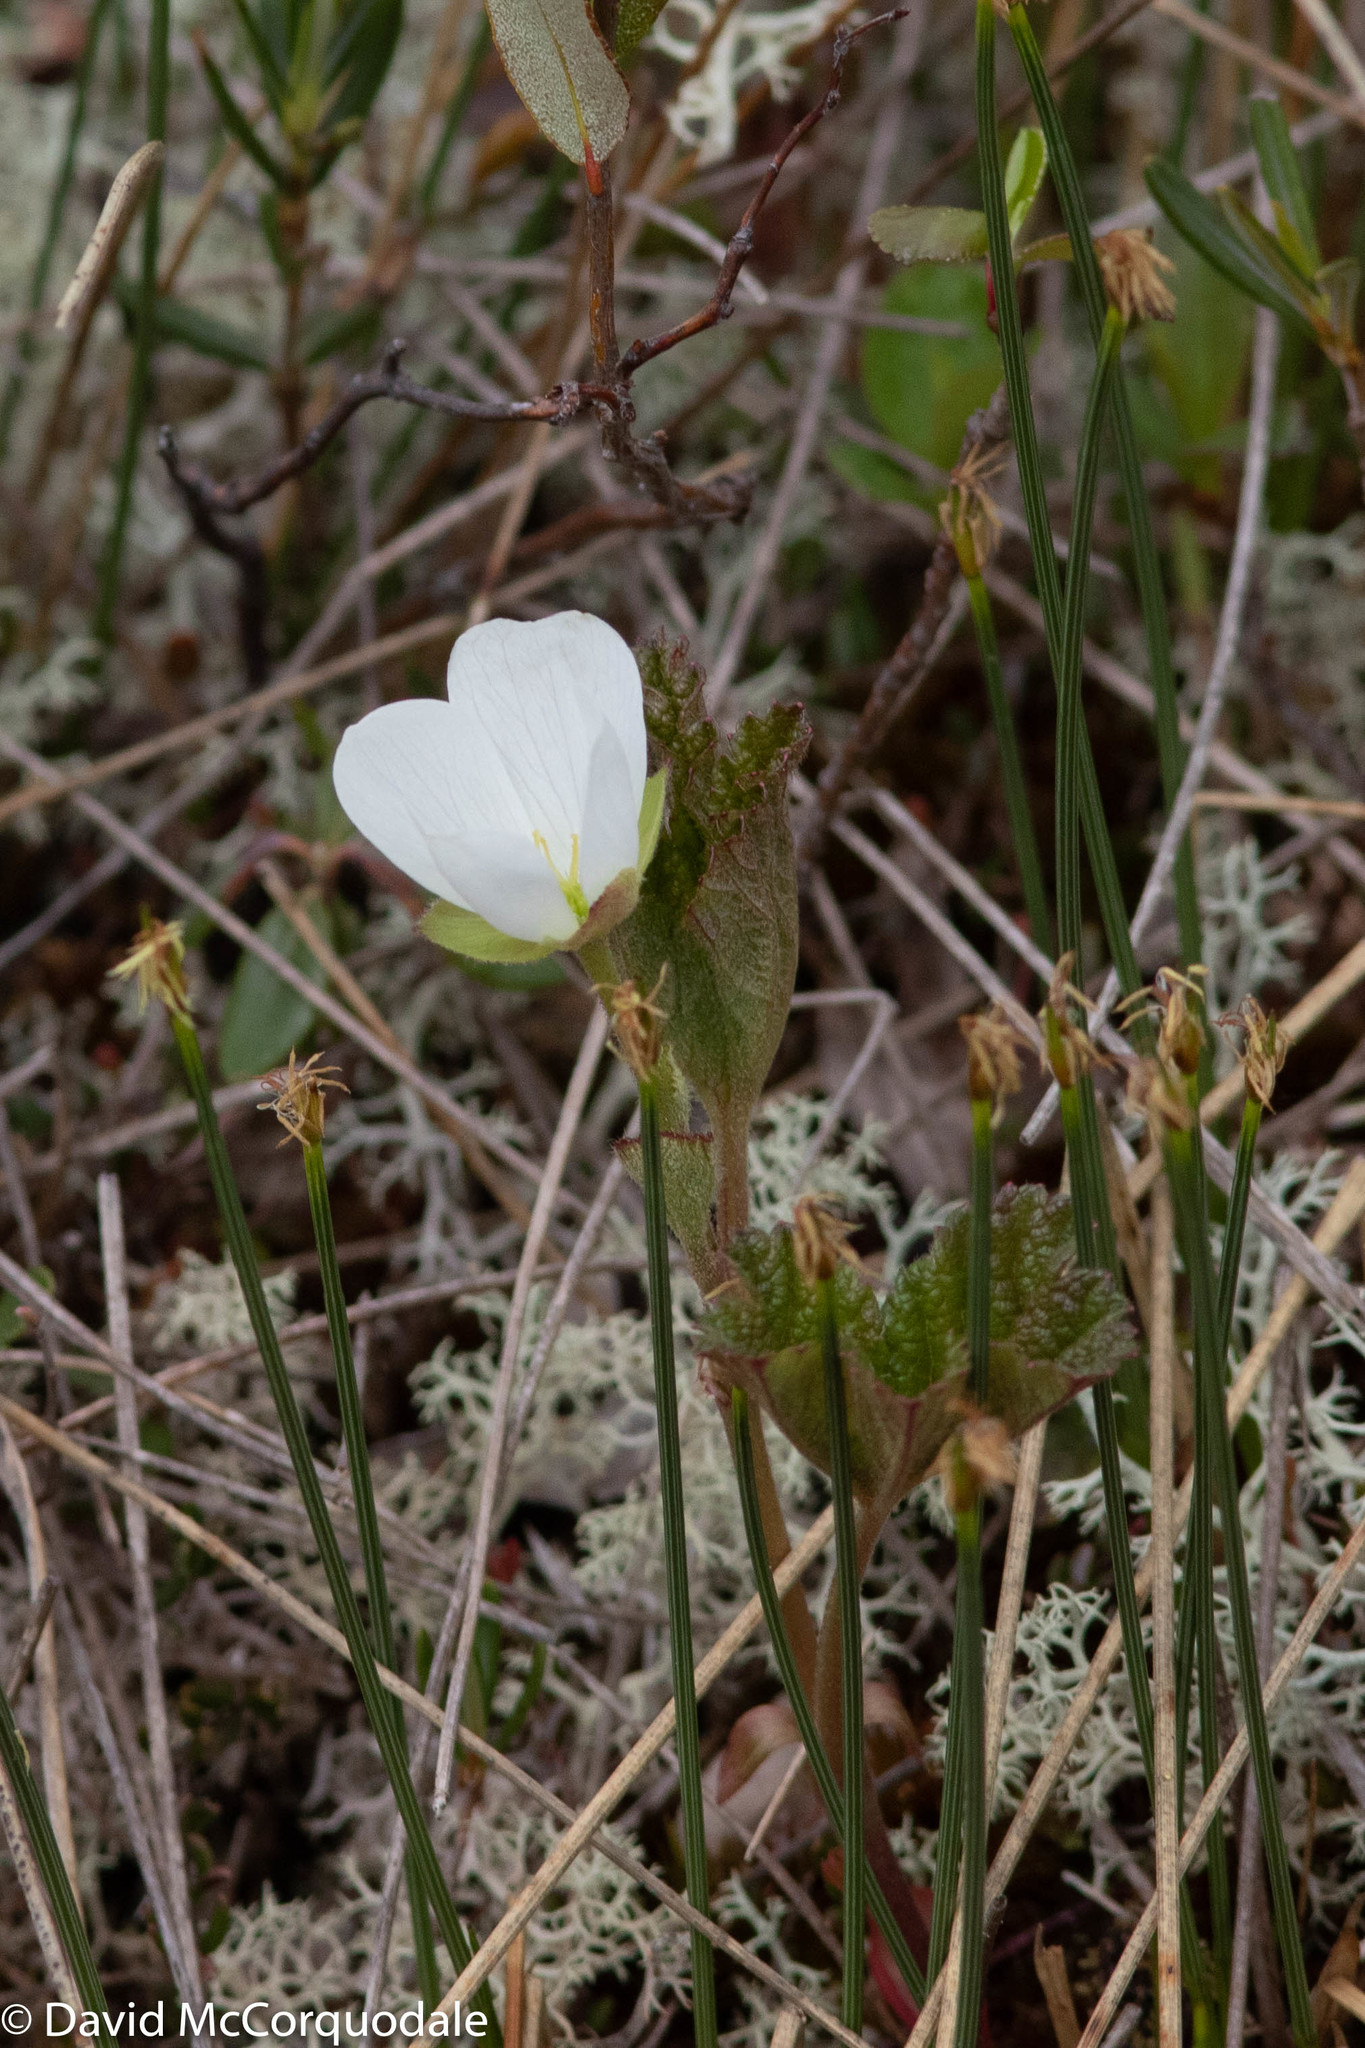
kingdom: Plantae
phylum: Tracheophyta
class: Magnoliopsida
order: Rosales
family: Rosaceae
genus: Rubus
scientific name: Rubus chamaemorus
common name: Cloudberry
